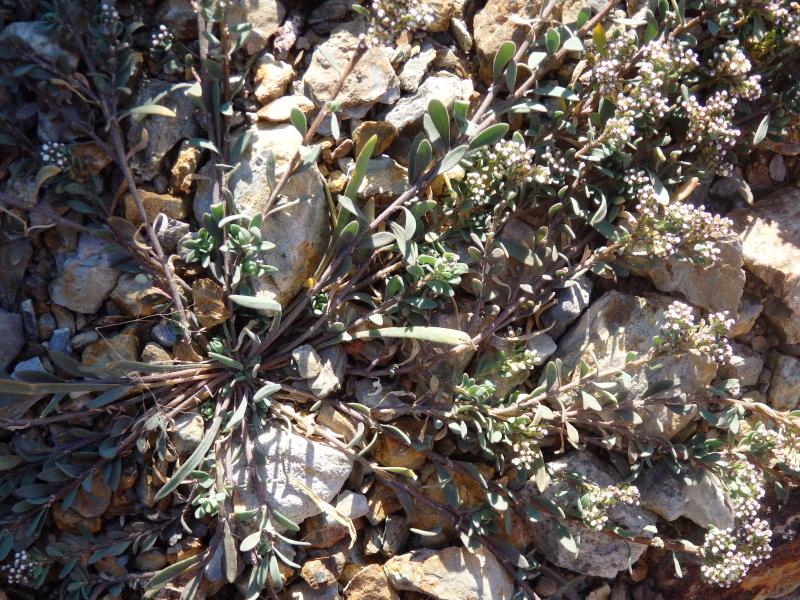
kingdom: Plantae
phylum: Tracheophyta
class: Magnoliopsida
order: Caryophyllales
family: Caryophyllaceae
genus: Corrigiola
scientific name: Corrigiola litoralis
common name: Strapwort
